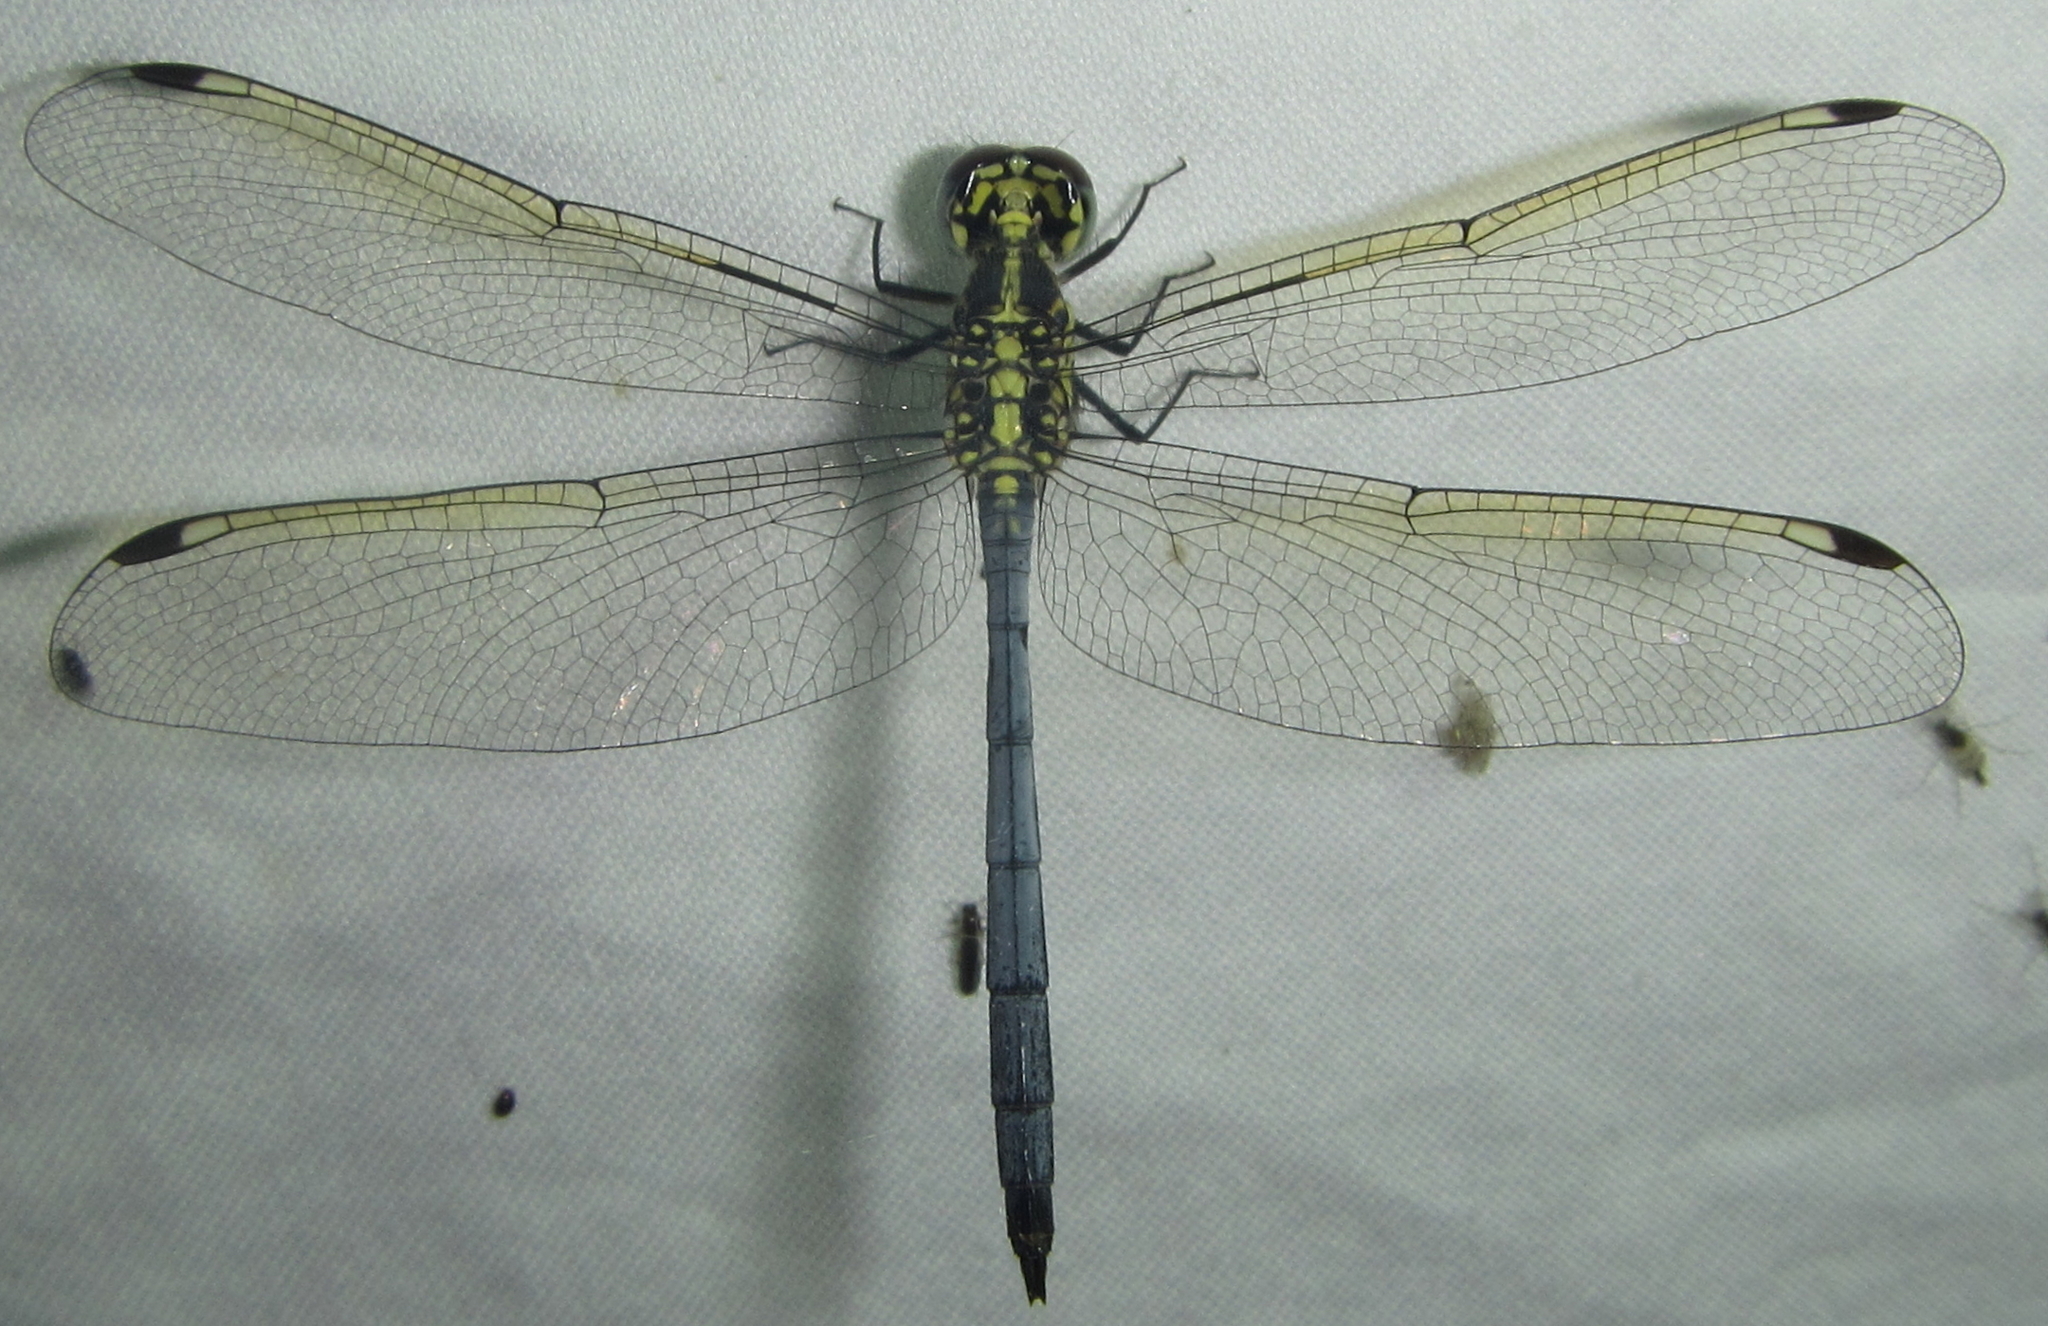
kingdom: Animalia
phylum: Arthropoda
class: Insecta
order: Odonata
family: Libellulidae
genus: Hemistigma
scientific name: Hemistigma albipunctum
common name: African pied-spot
